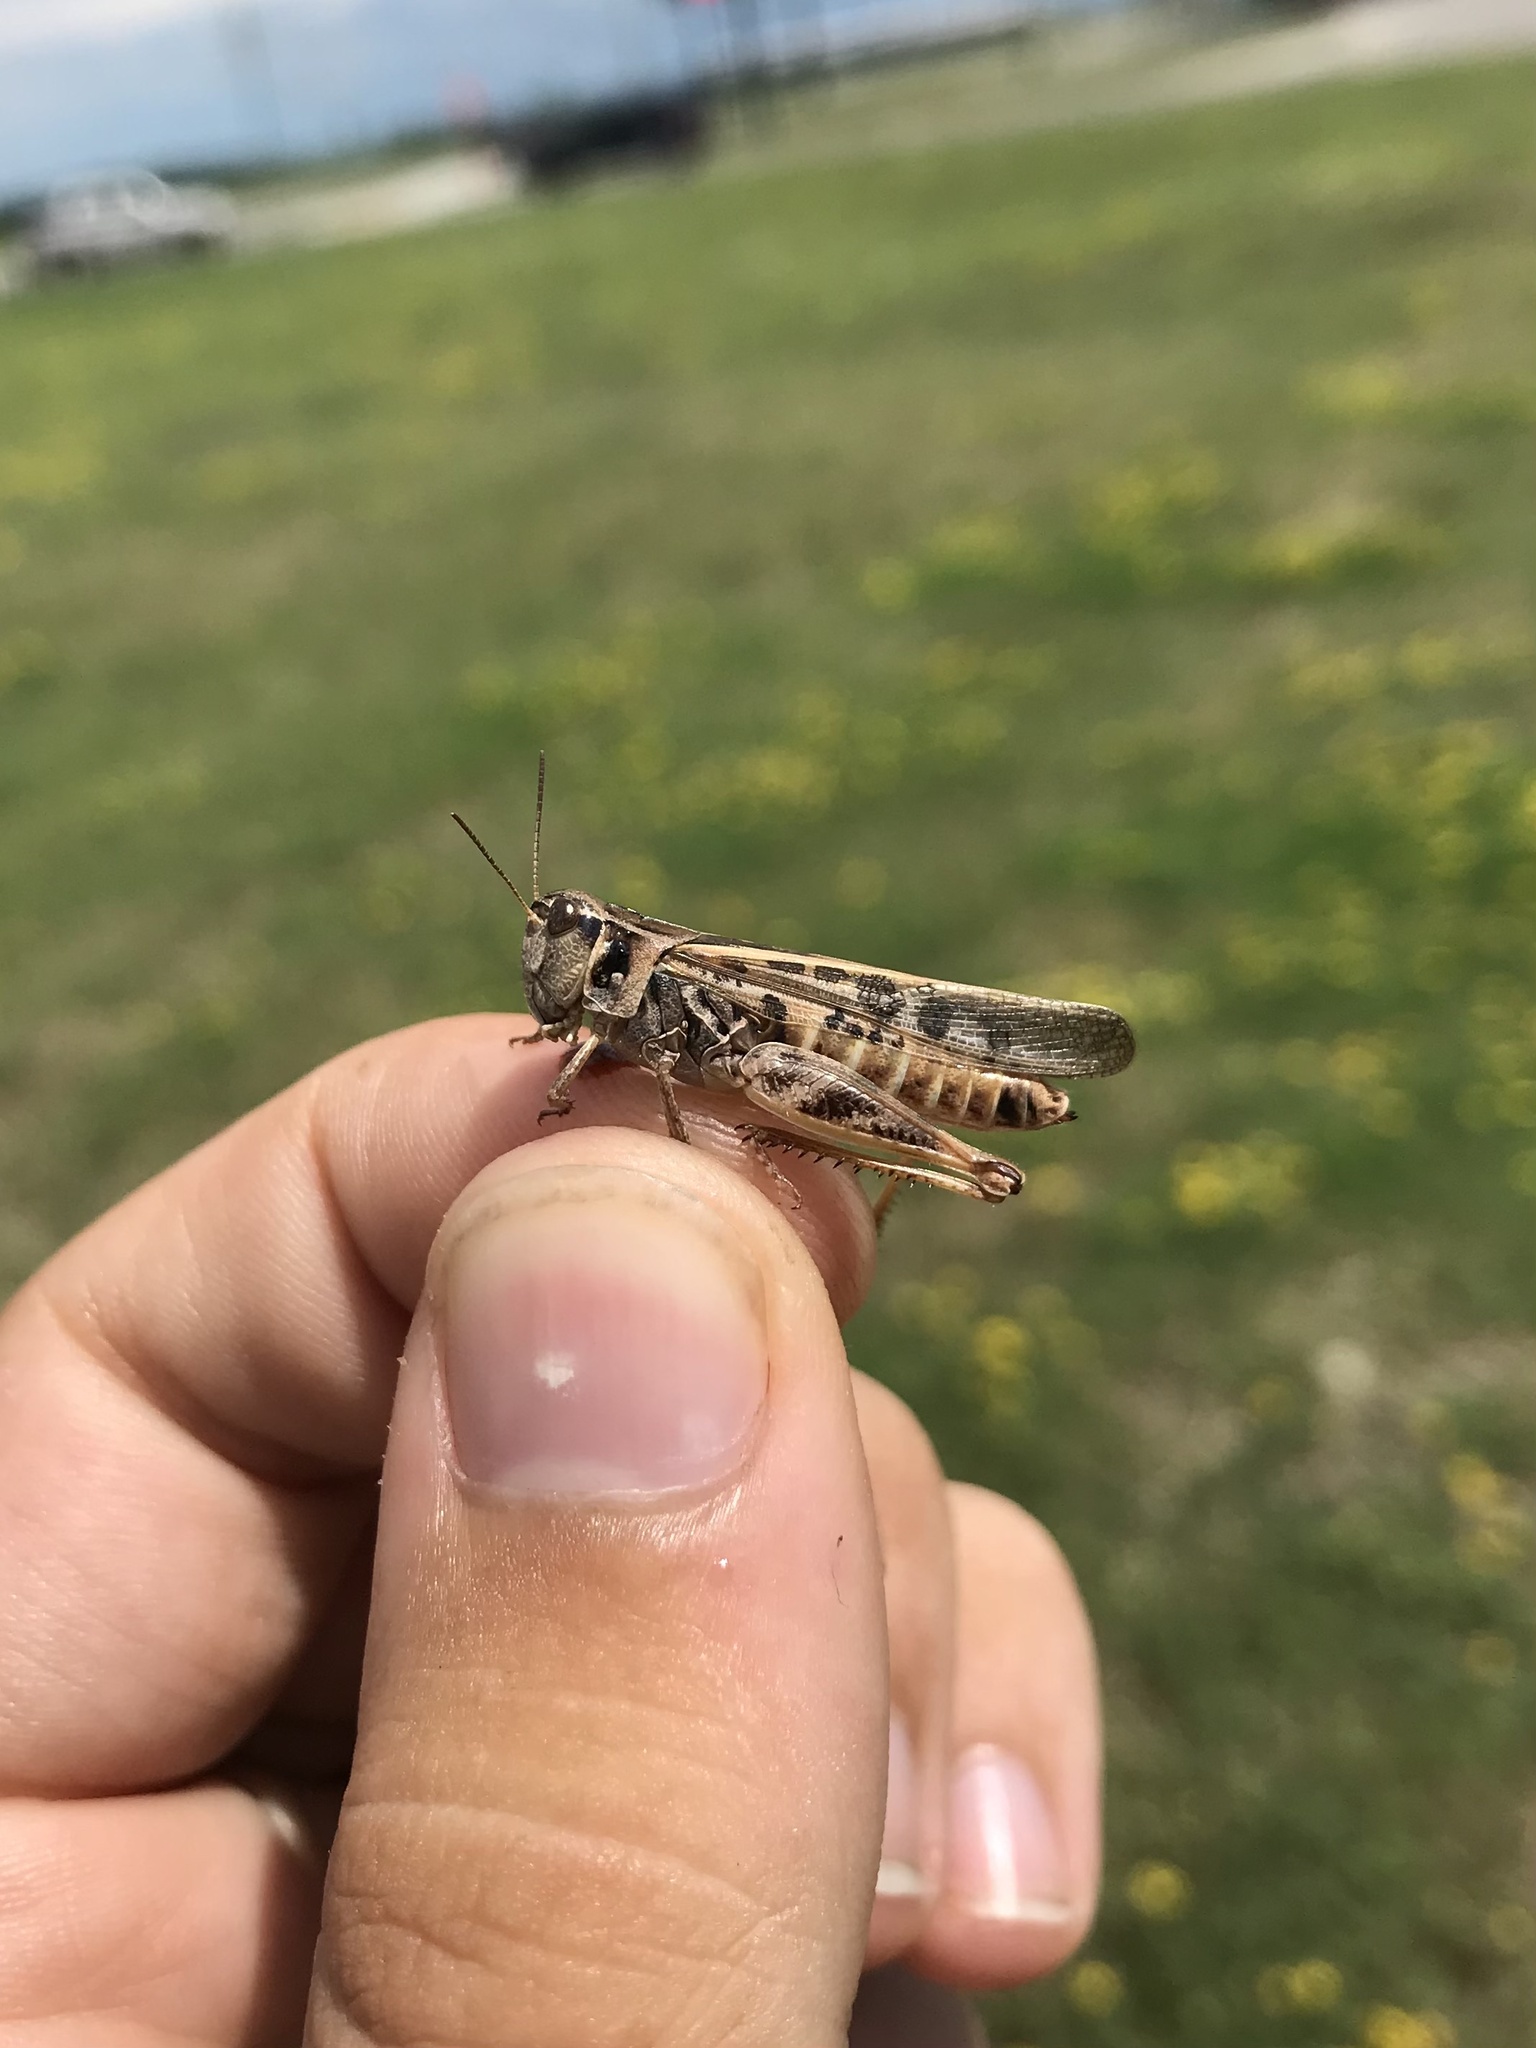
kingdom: Animalia
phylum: Arthropoda
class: Insecta
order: Orthoptera
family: Acrididae
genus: Camnula
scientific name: Camnula pellucida
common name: Clear-winged grasshopper
